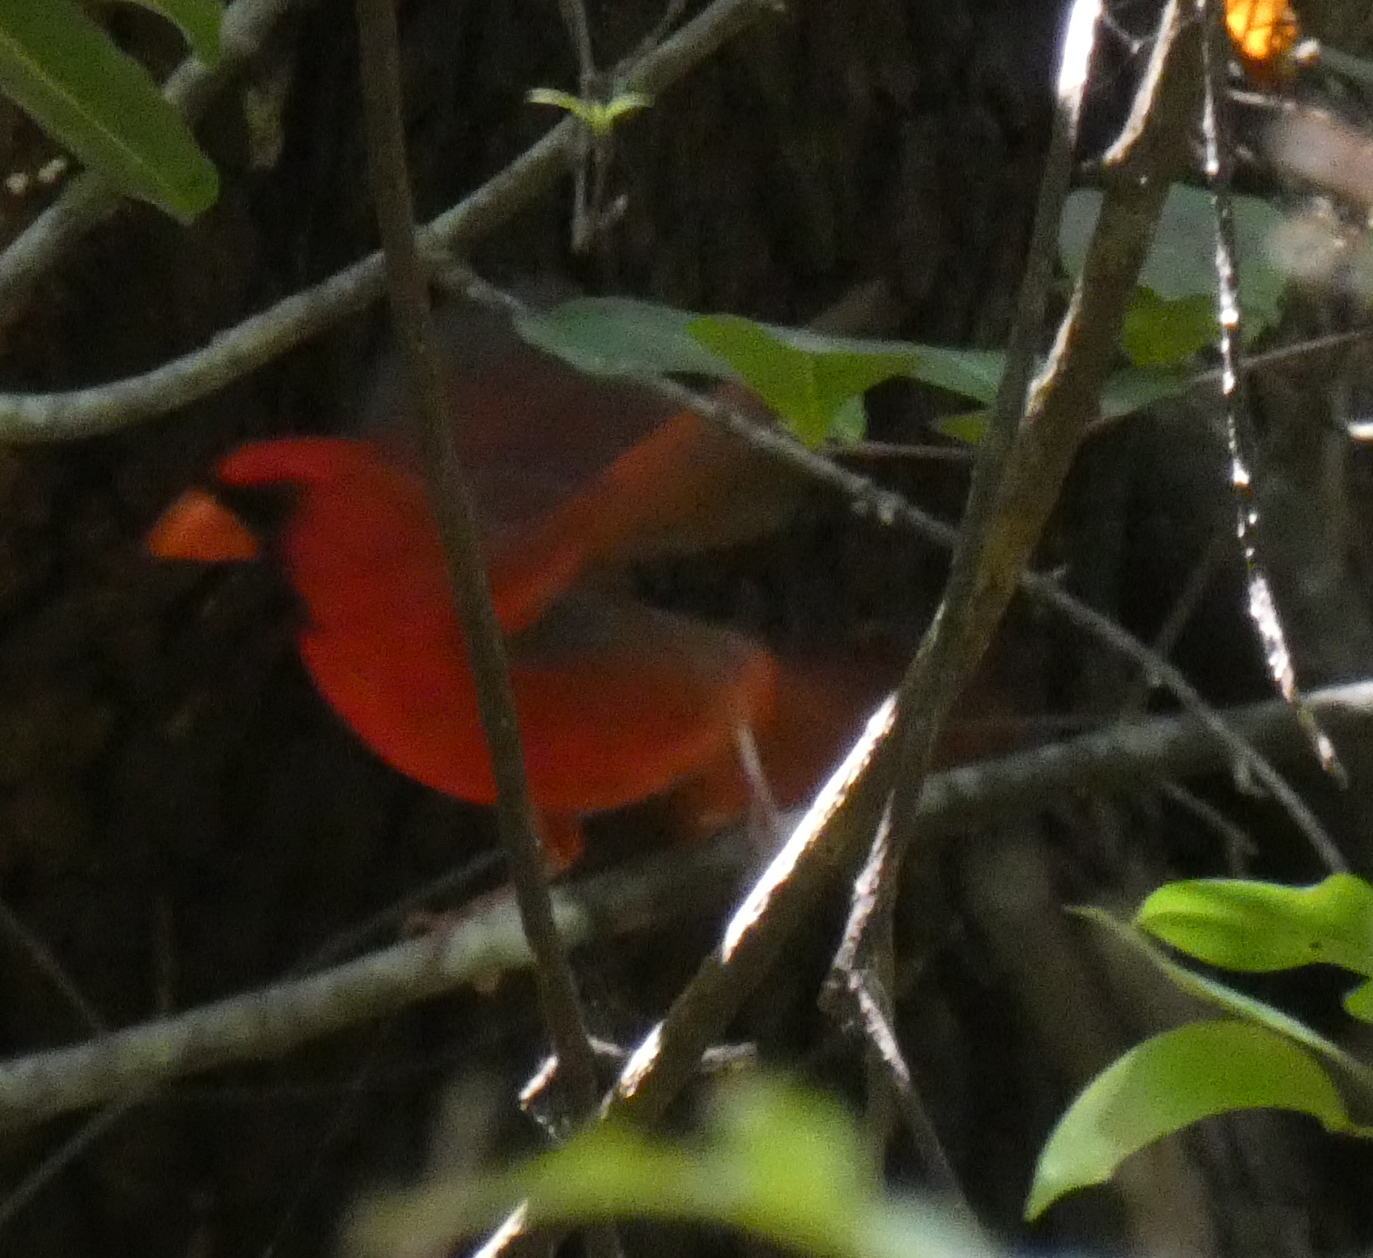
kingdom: Animalia
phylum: Chordata
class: Aves
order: Passeriformes
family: Cardinalidae
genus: Cardinalis
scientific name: Cardinalis cardinalis
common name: Northern cardinal
